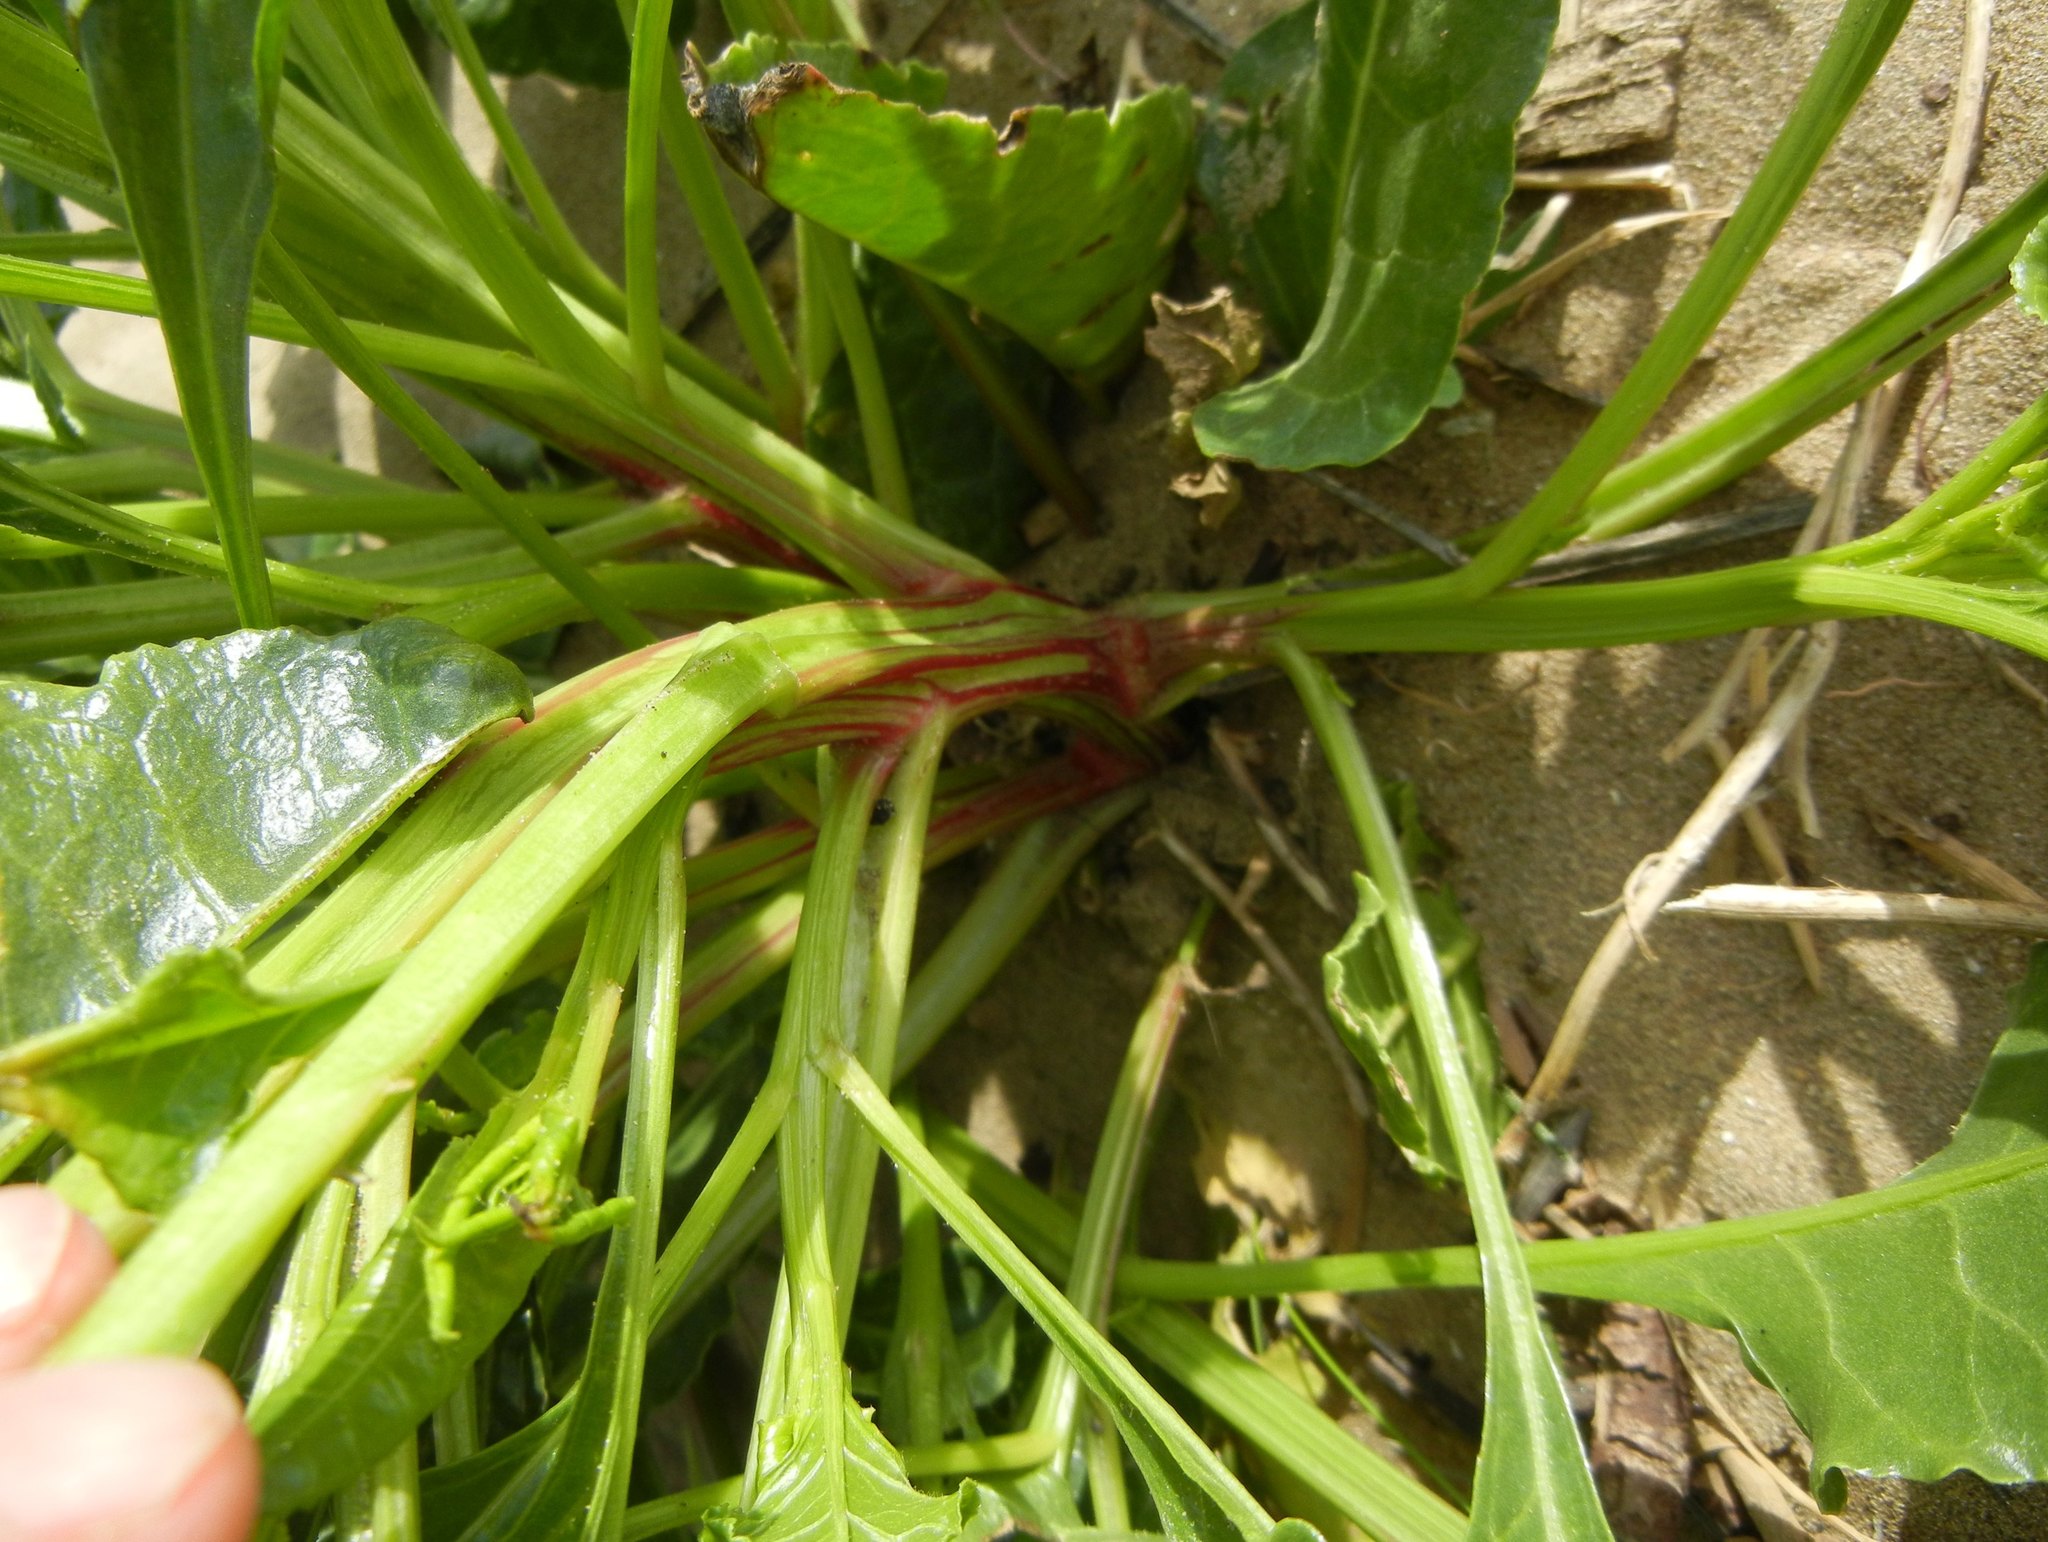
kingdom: Plantae
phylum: Tracheophyta
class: Magnoliopsida
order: Caryophyllales
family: Amaranthaceae
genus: Beta
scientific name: Beta vulgaris
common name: Beet
